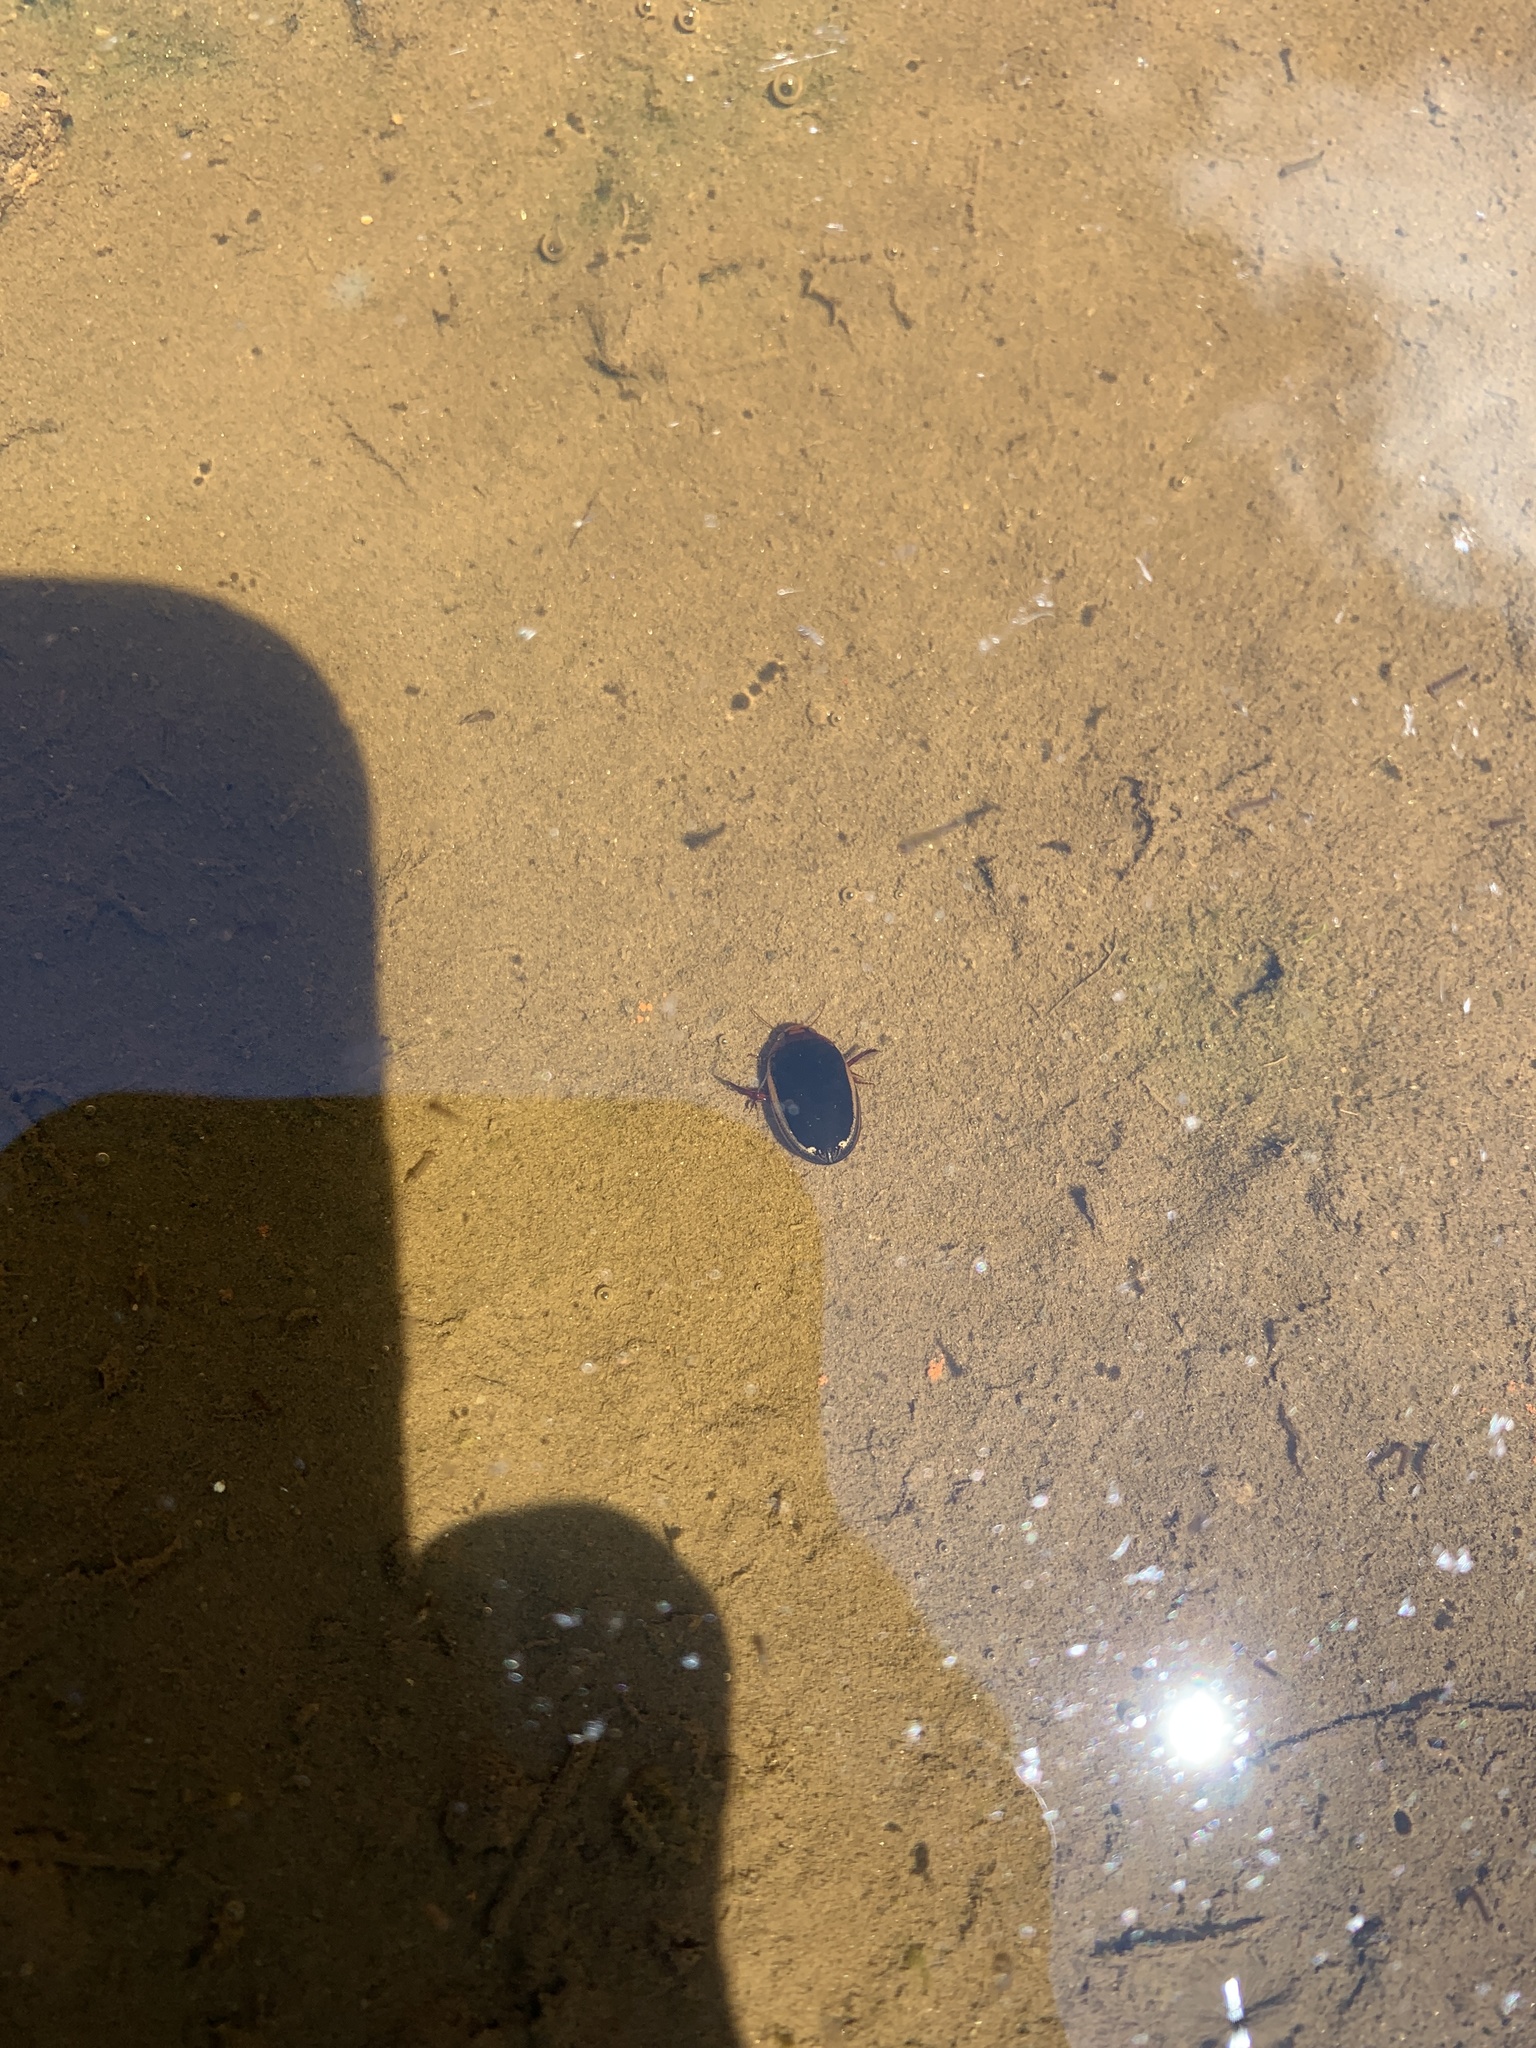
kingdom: Animalia
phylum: Arthropoda
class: Insecta
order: Coleoptera
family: Dytiscidae
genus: Hydaticus
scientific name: Hydaticus bimarginatus
